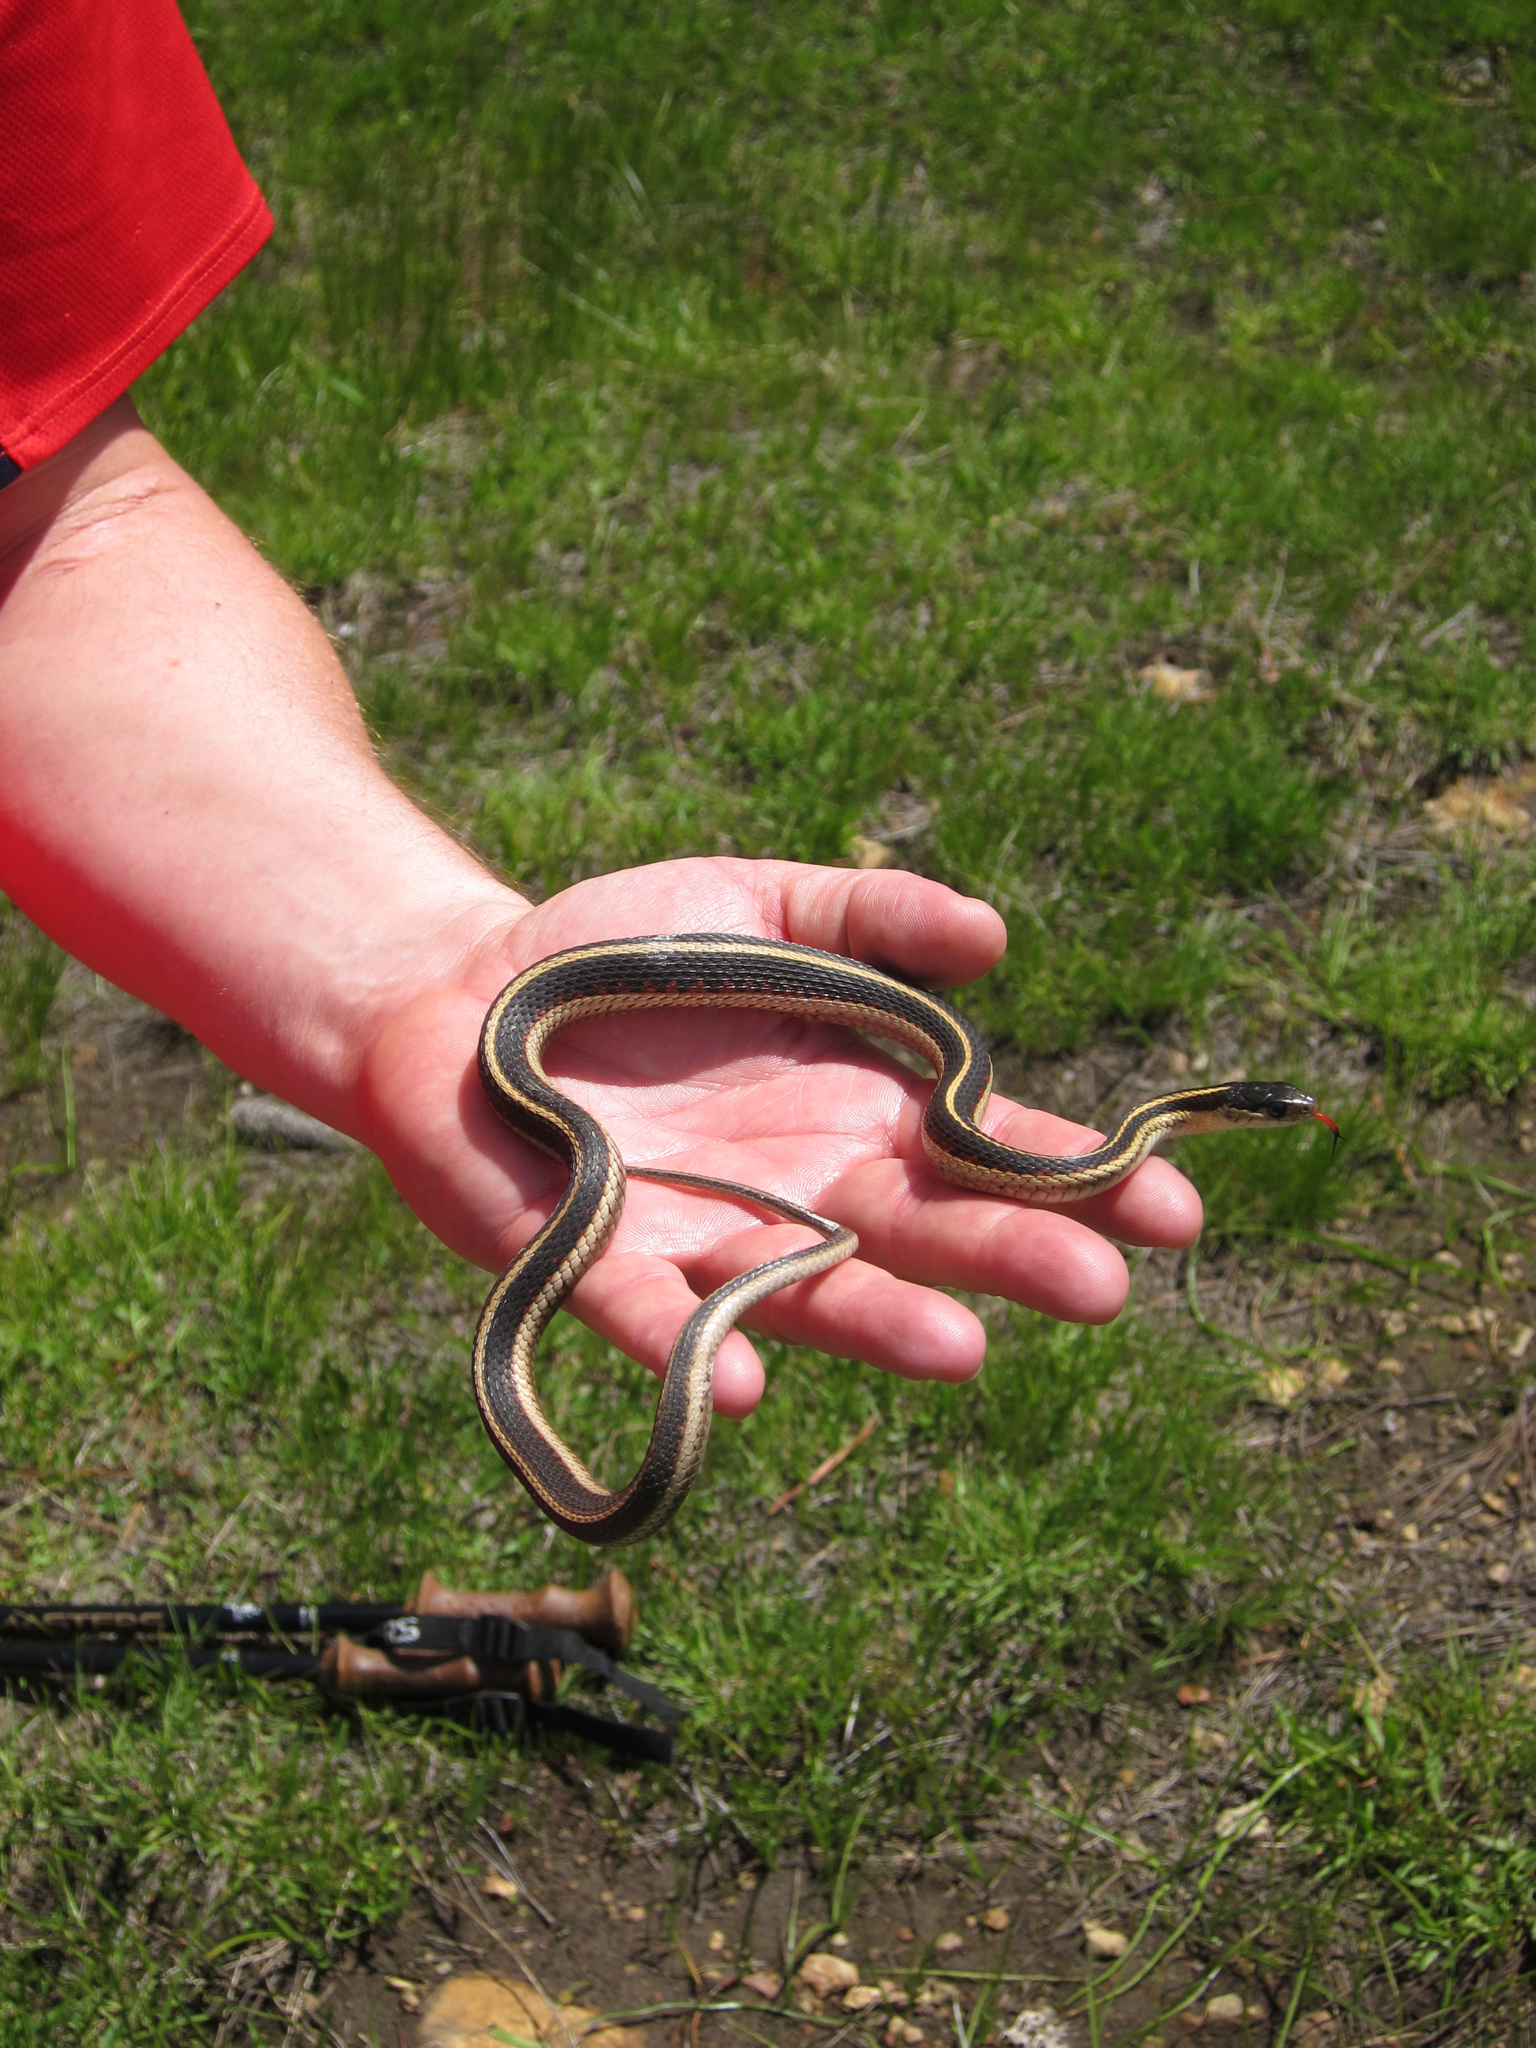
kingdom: Animalia
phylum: Chordata
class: Squamata
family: Colubridae
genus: Thamnophis
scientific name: Thamnophis sirtalis
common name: Common garter snake
